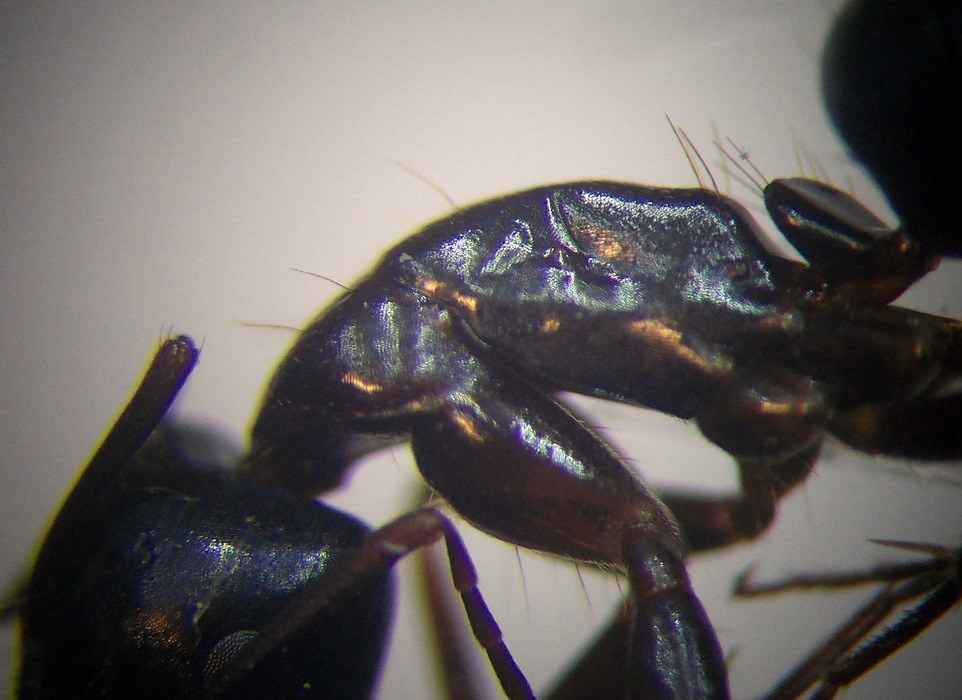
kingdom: Animalia
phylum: Arthropoda
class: Insecta
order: Hymenoptera
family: Formicidae
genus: Camponotus
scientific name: Camponotus aethiops
